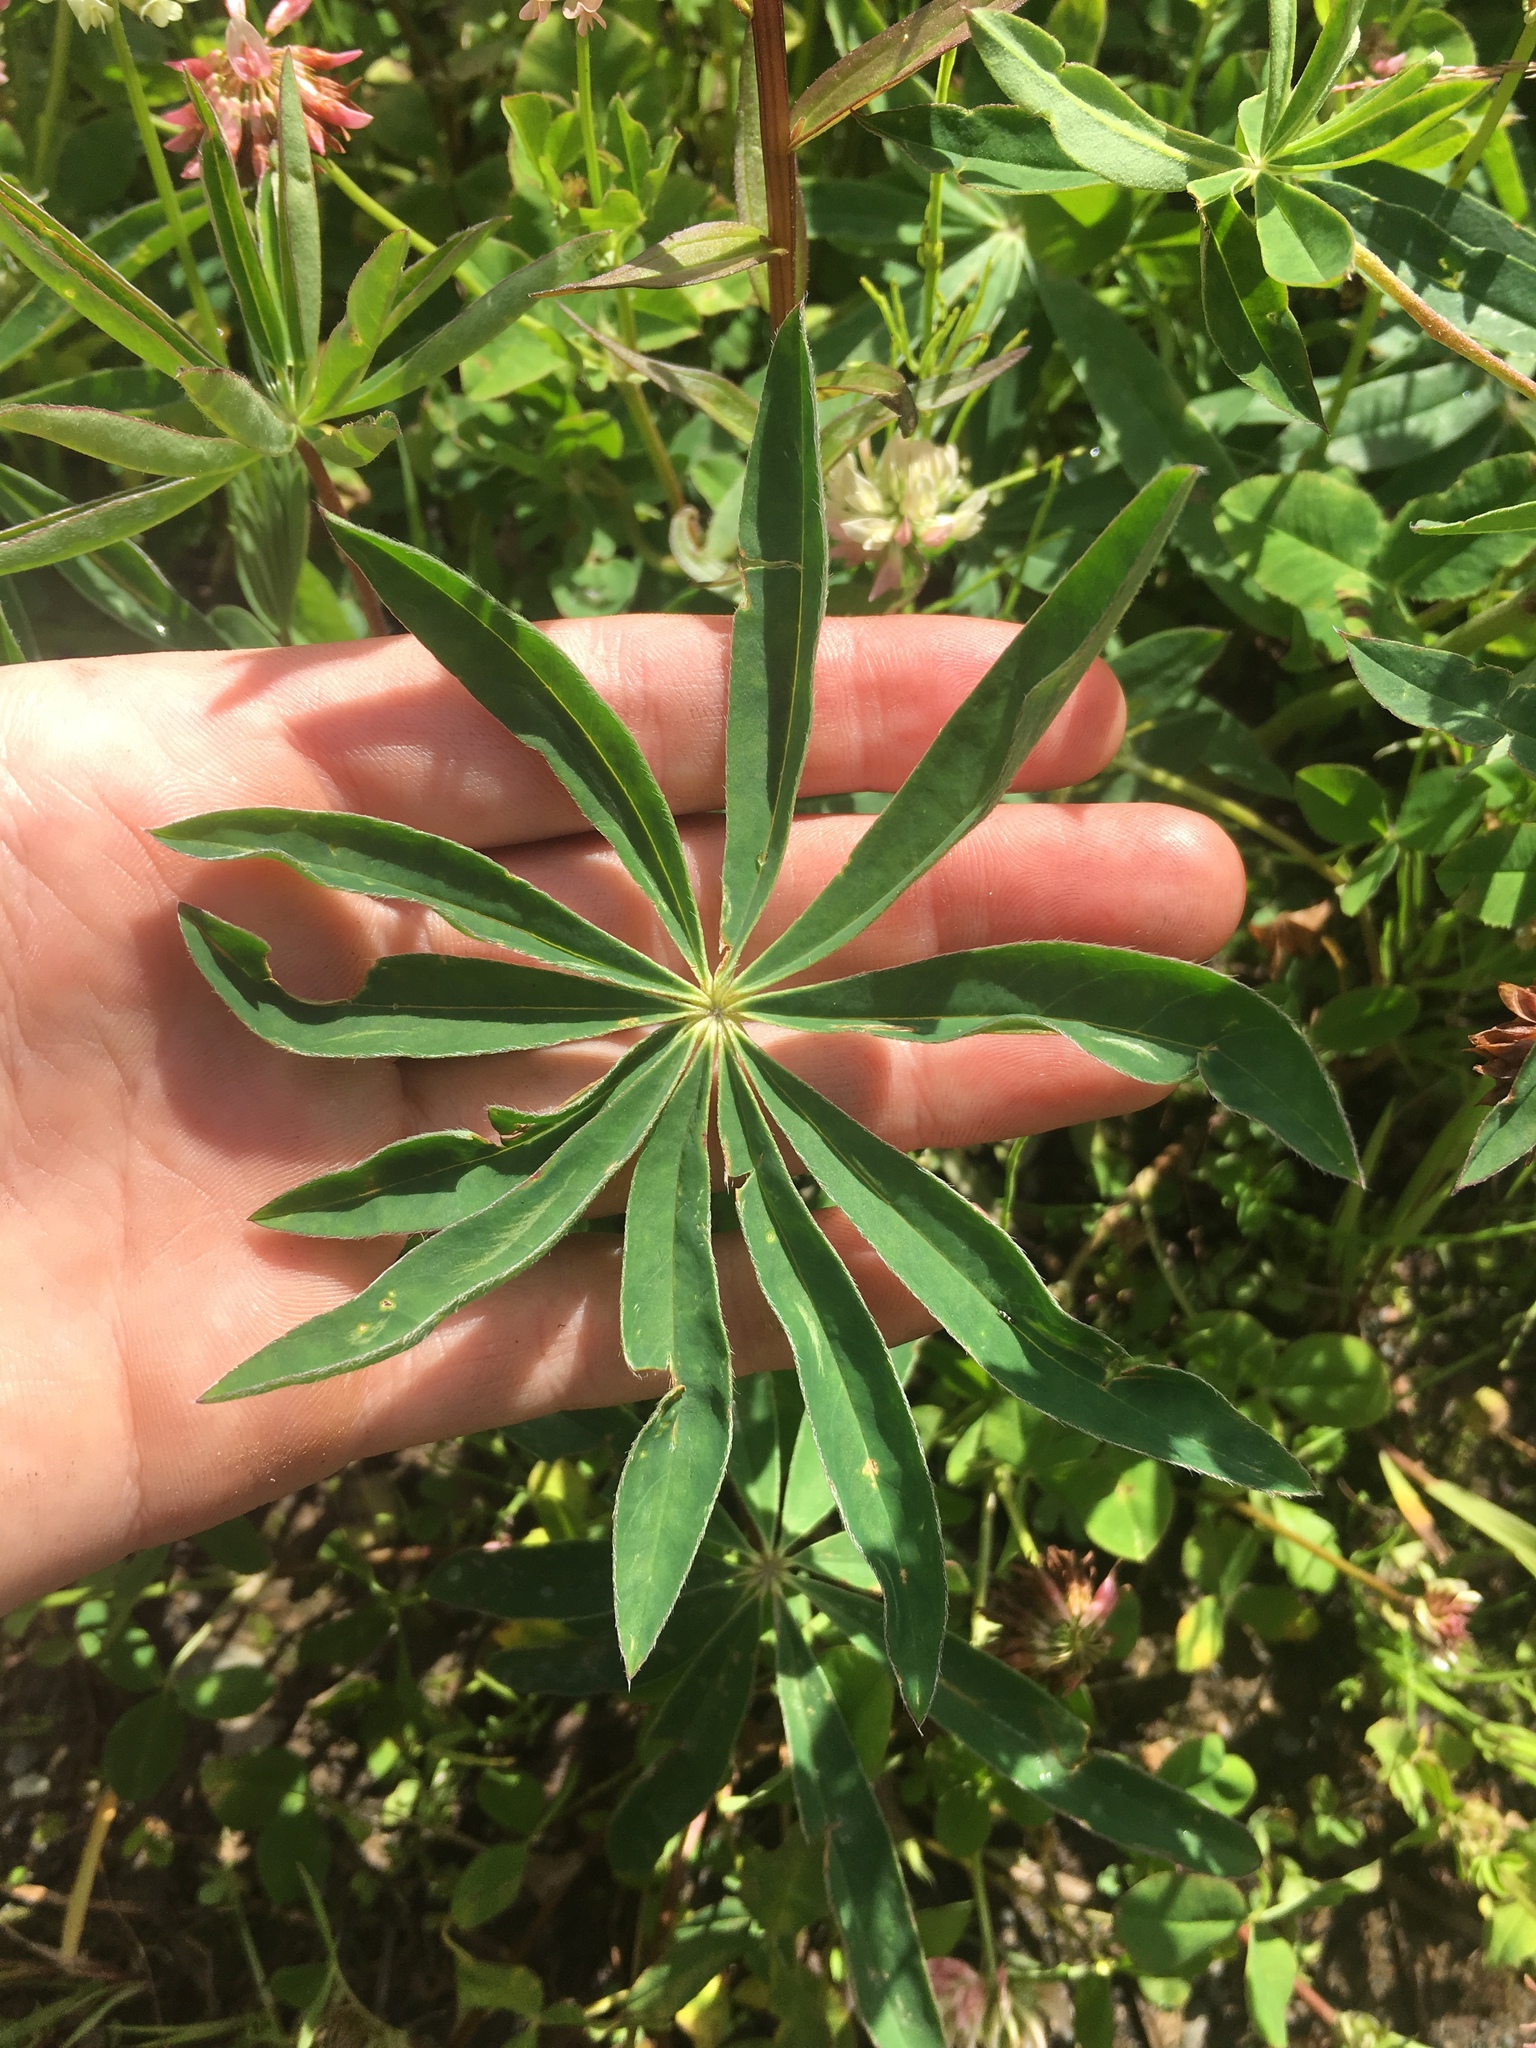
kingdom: Plantae
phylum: Tracheophyta
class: Magnoliopsida
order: Fabales
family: Fabaceae
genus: Lupinus
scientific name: Lupinus arcticus
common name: Arctic lupine
